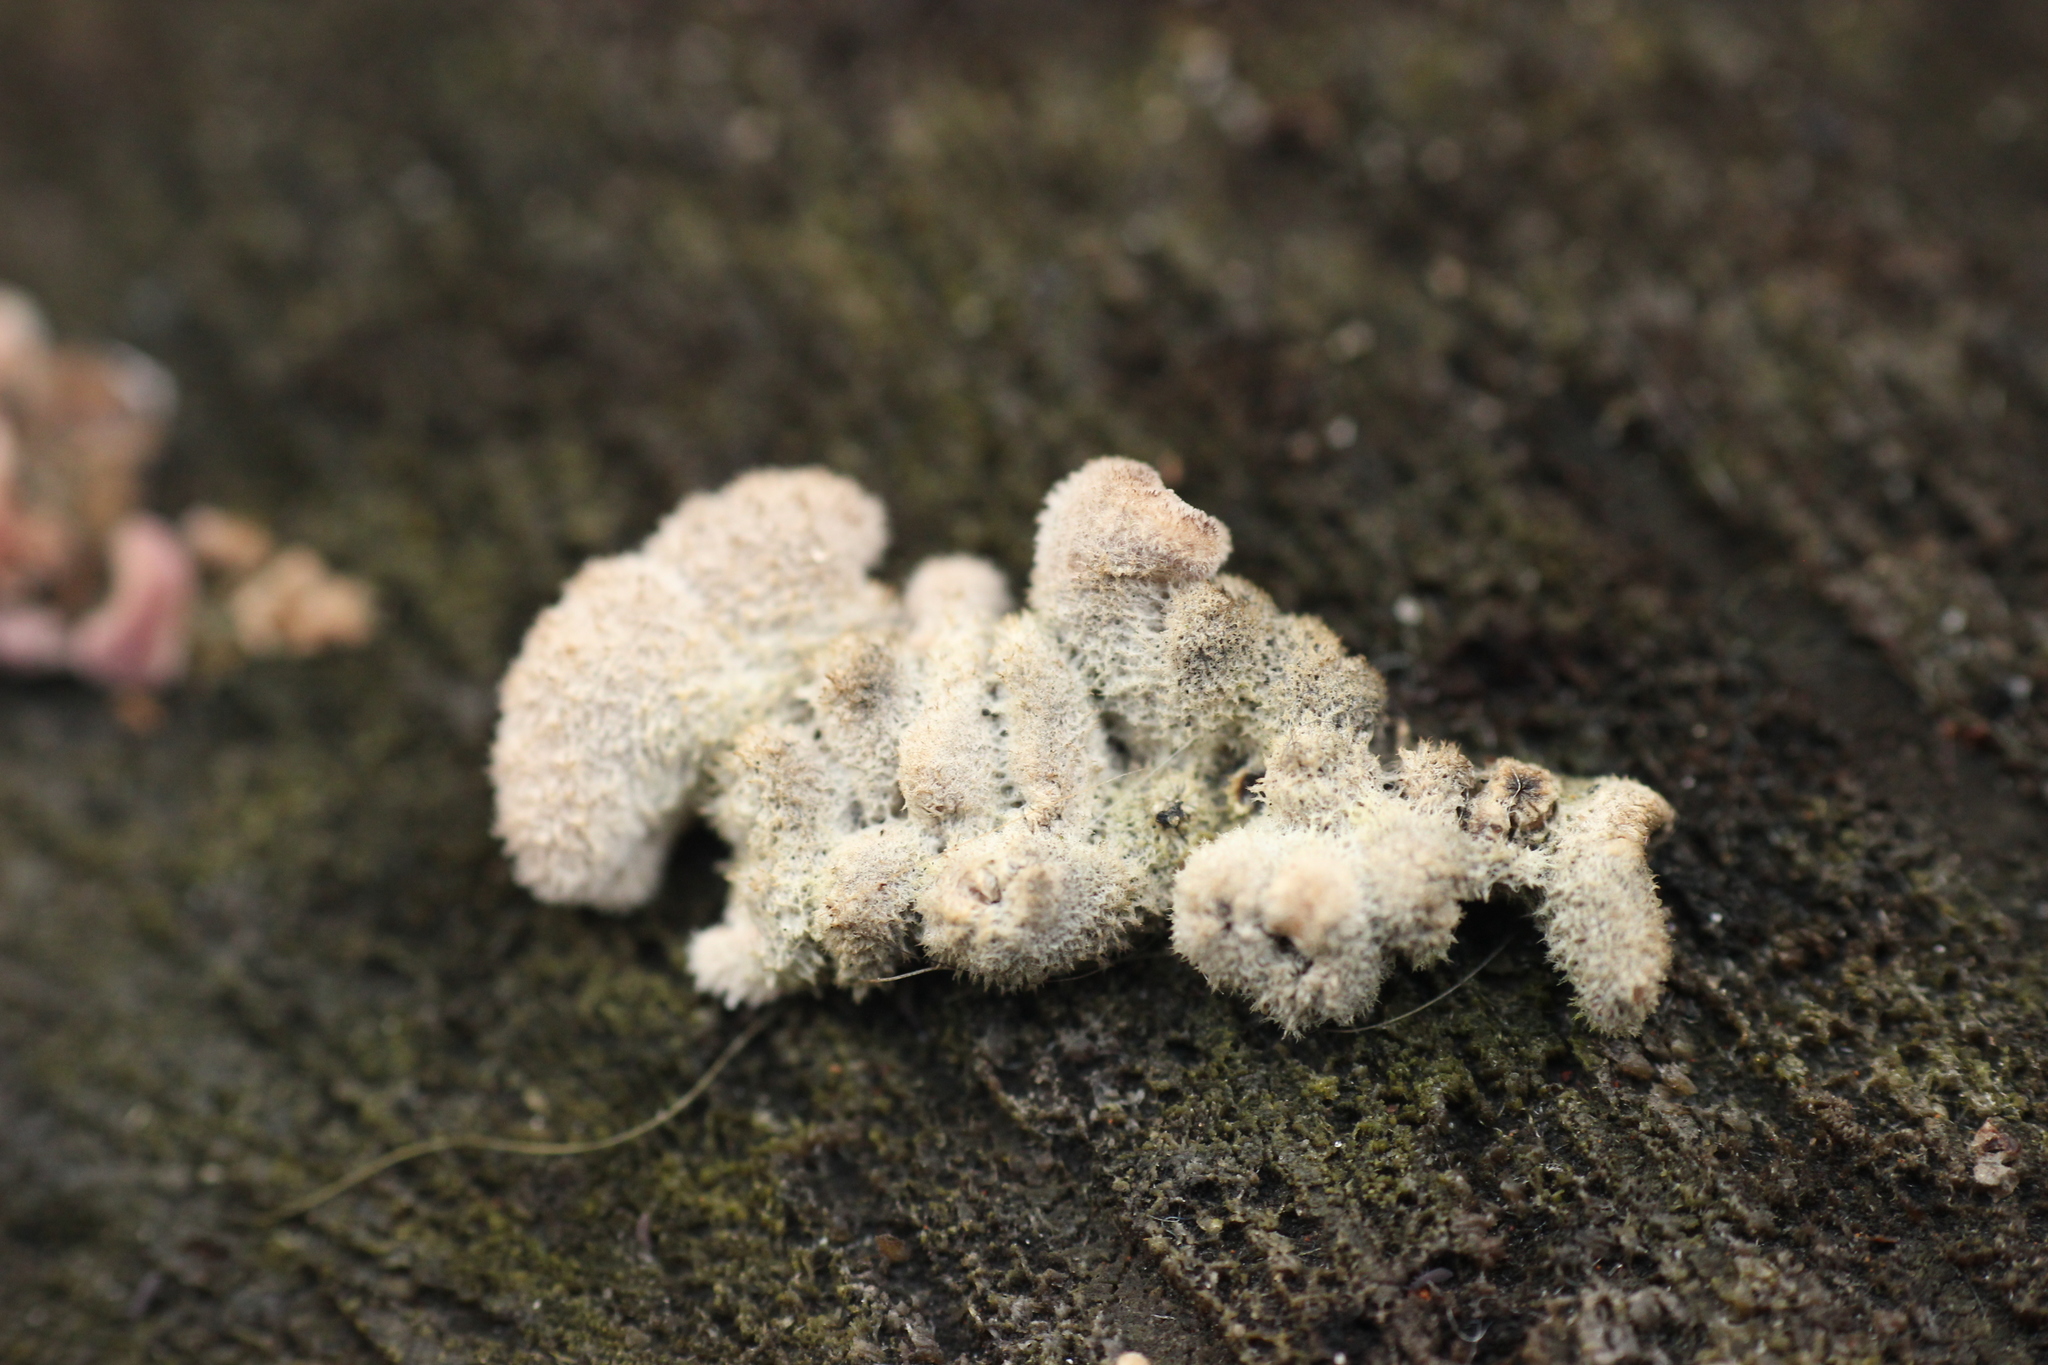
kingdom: Fungi
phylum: Basidiomycota
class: Agaricomycetes
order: Agaricales
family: Schizophyllaceae
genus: Schizophyllum
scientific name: Schizophyllum commune
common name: Common porecrust
